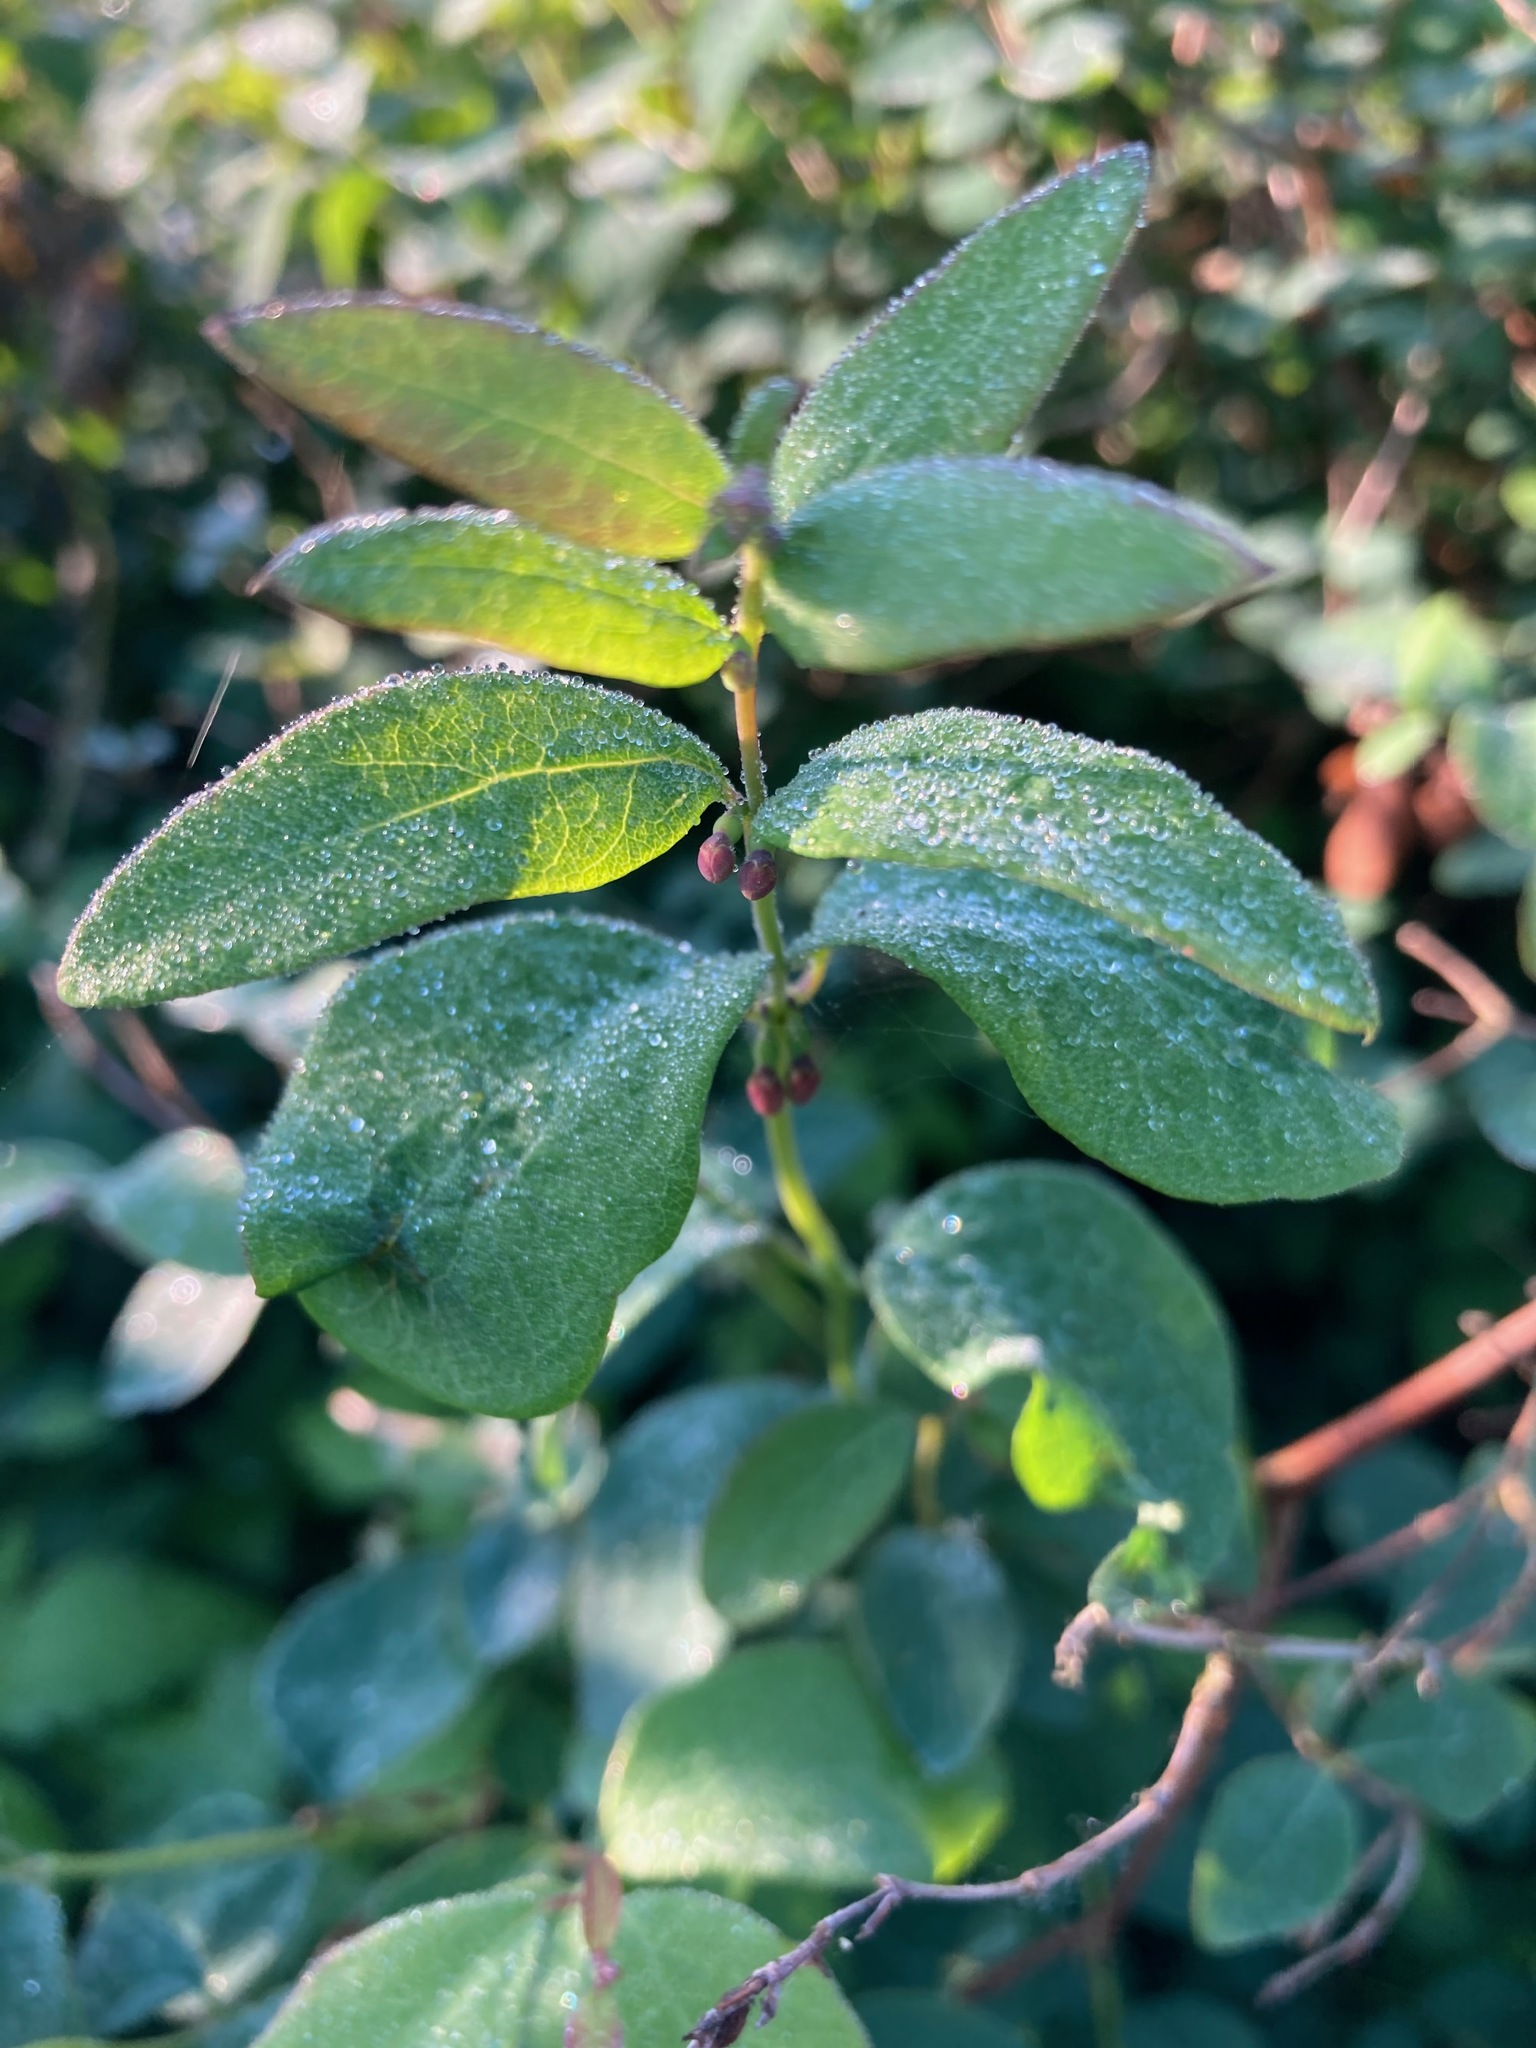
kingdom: Plantae
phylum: Tracheophyta
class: Magnoliopsida
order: Dipsacales
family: Caprifoliaceae
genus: Symphoricarpos
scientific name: Symphoricarpos albus
